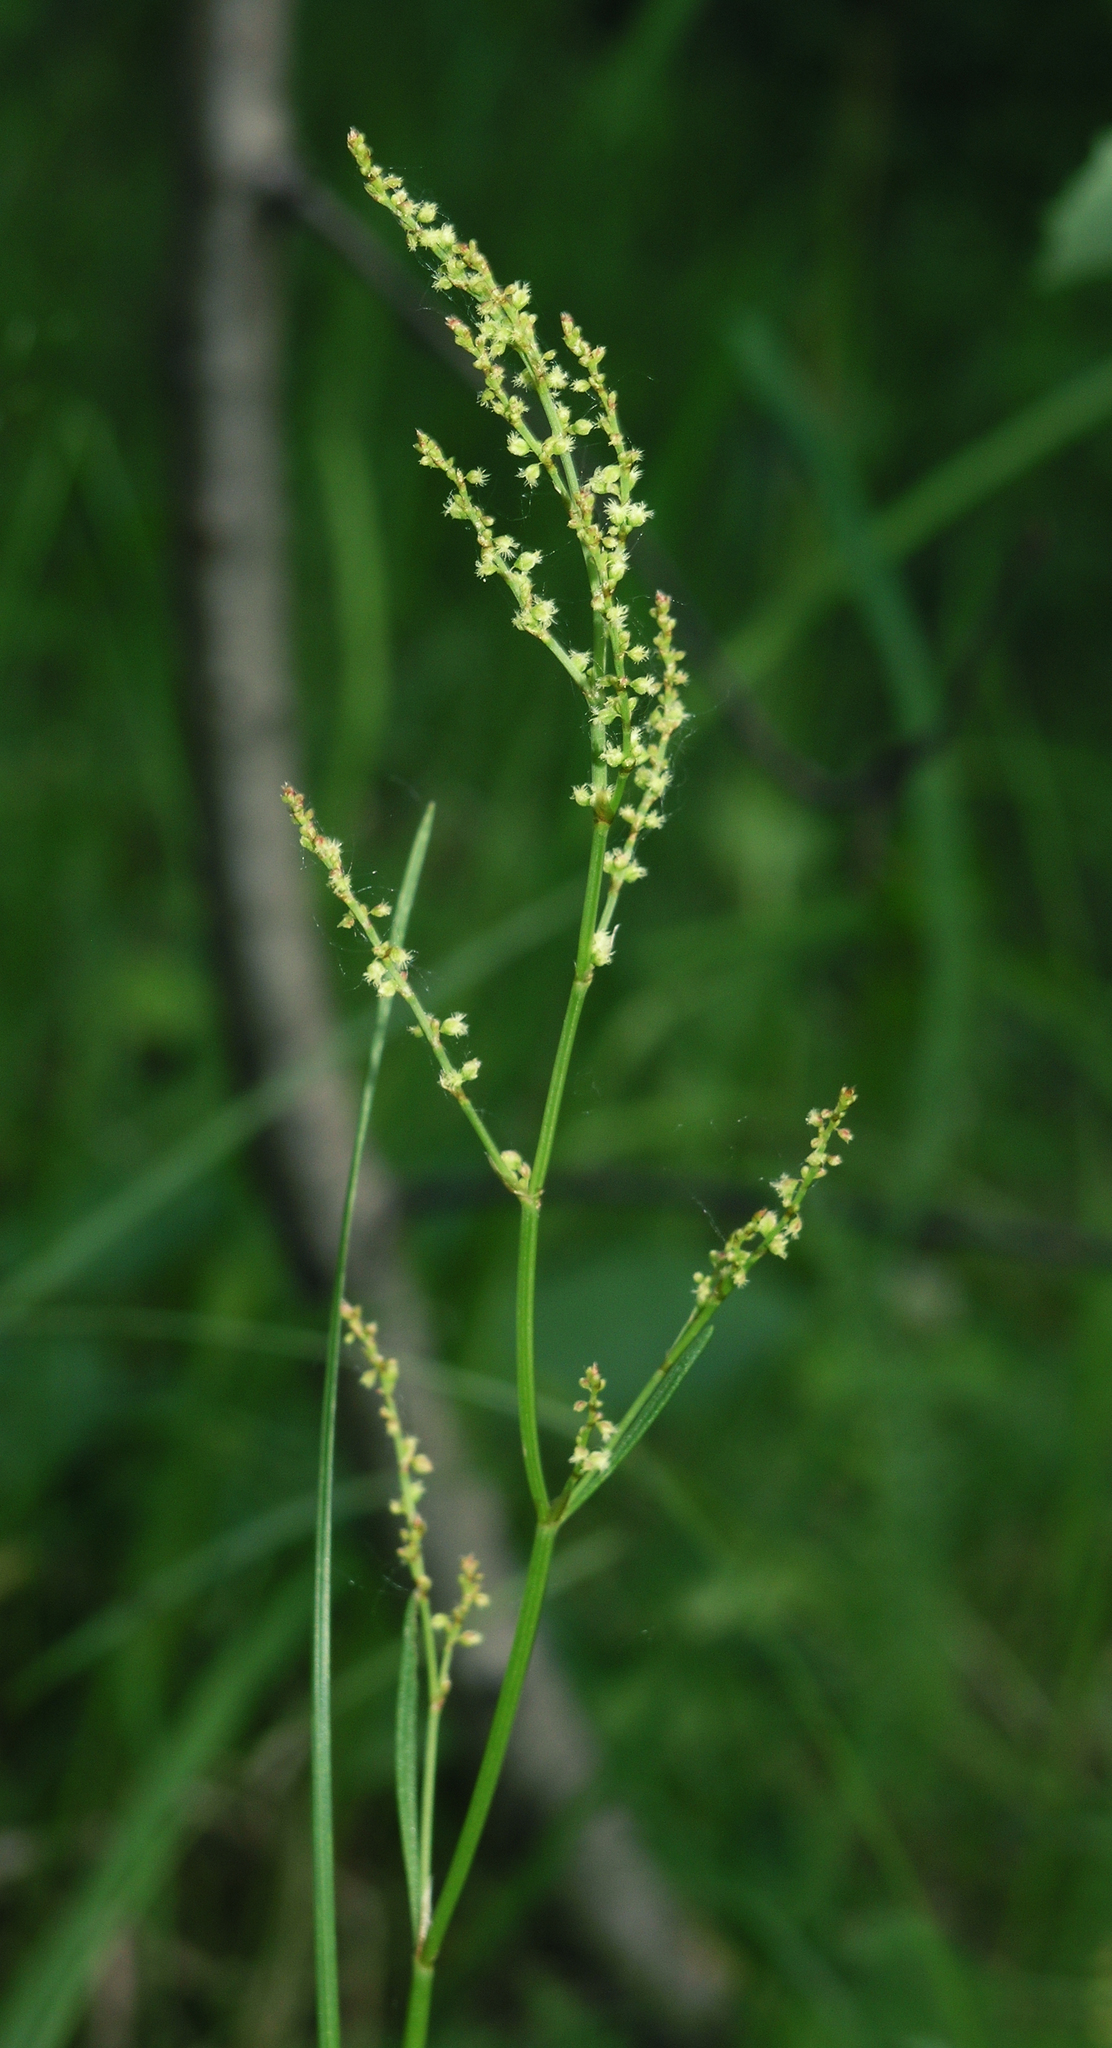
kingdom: Plantae
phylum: Tracheophyta
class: Magnoliopsida
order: Caryophyllales
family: Polygonaceae
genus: Rumex
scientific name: Rumex acetosella
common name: Common sheep sorrel
